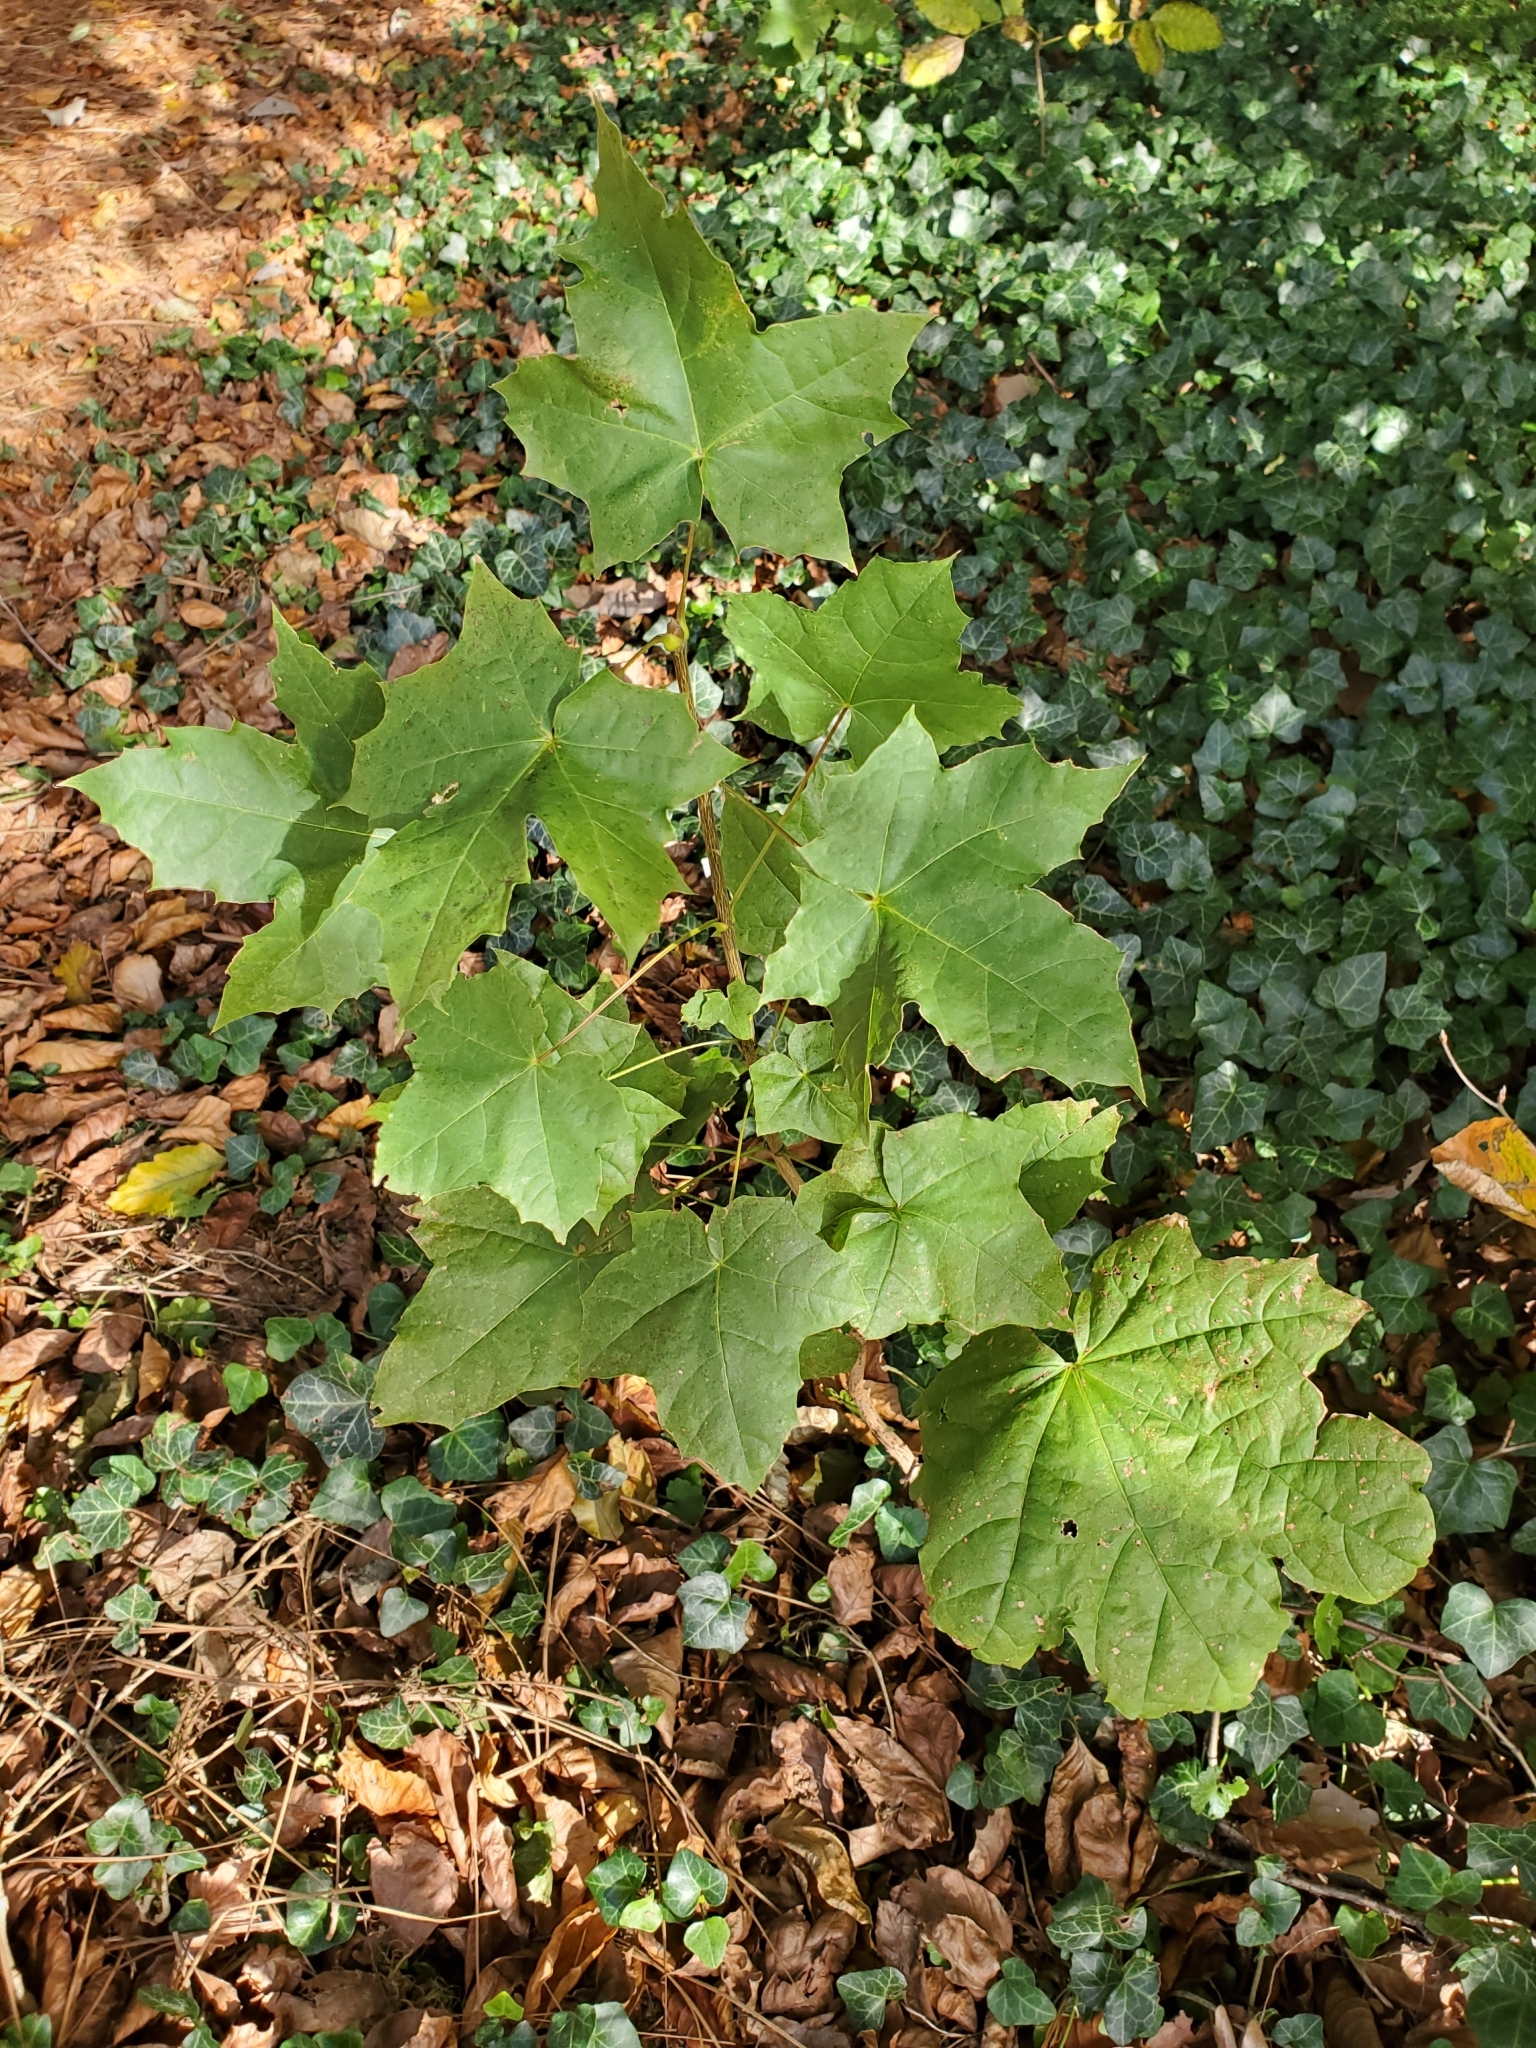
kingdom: Plantae
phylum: Tracheophyta
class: Magnoliopsida
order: Sapindales
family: Sapindaceae
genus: Acer
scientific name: Acer platanoides
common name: Norway maple
